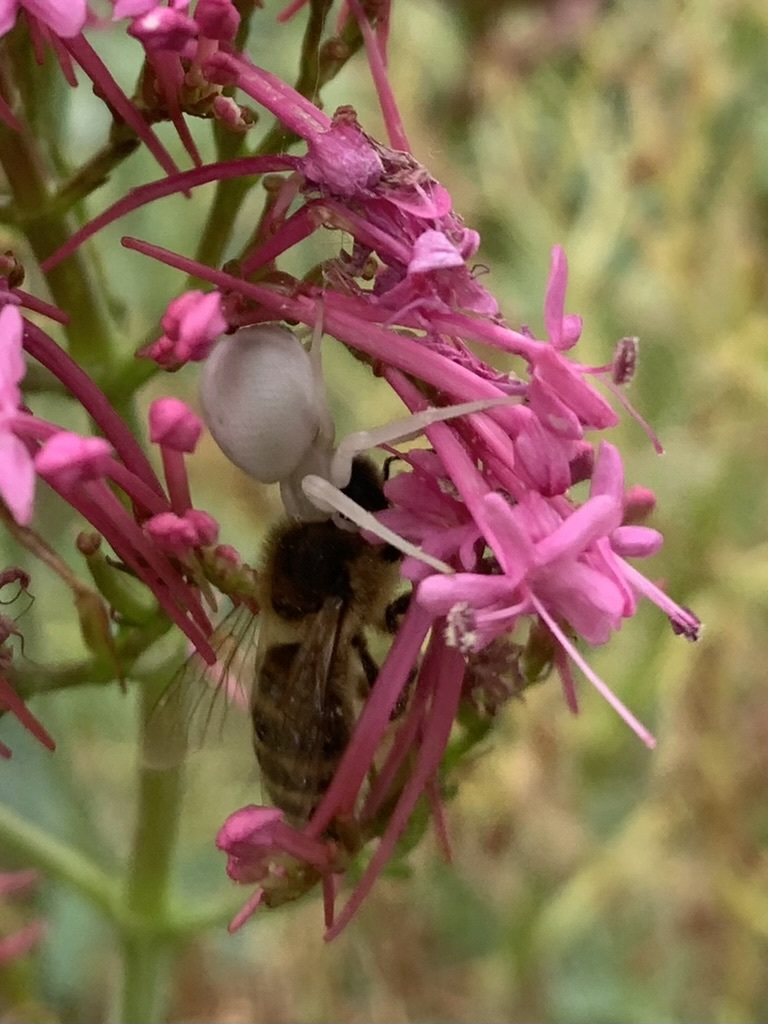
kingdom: Animalia
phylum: Arthropoda
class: Insecta
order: Hymenoptera
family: Apidae
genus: Apis
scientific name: Apis mellifera
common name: Honey bee
